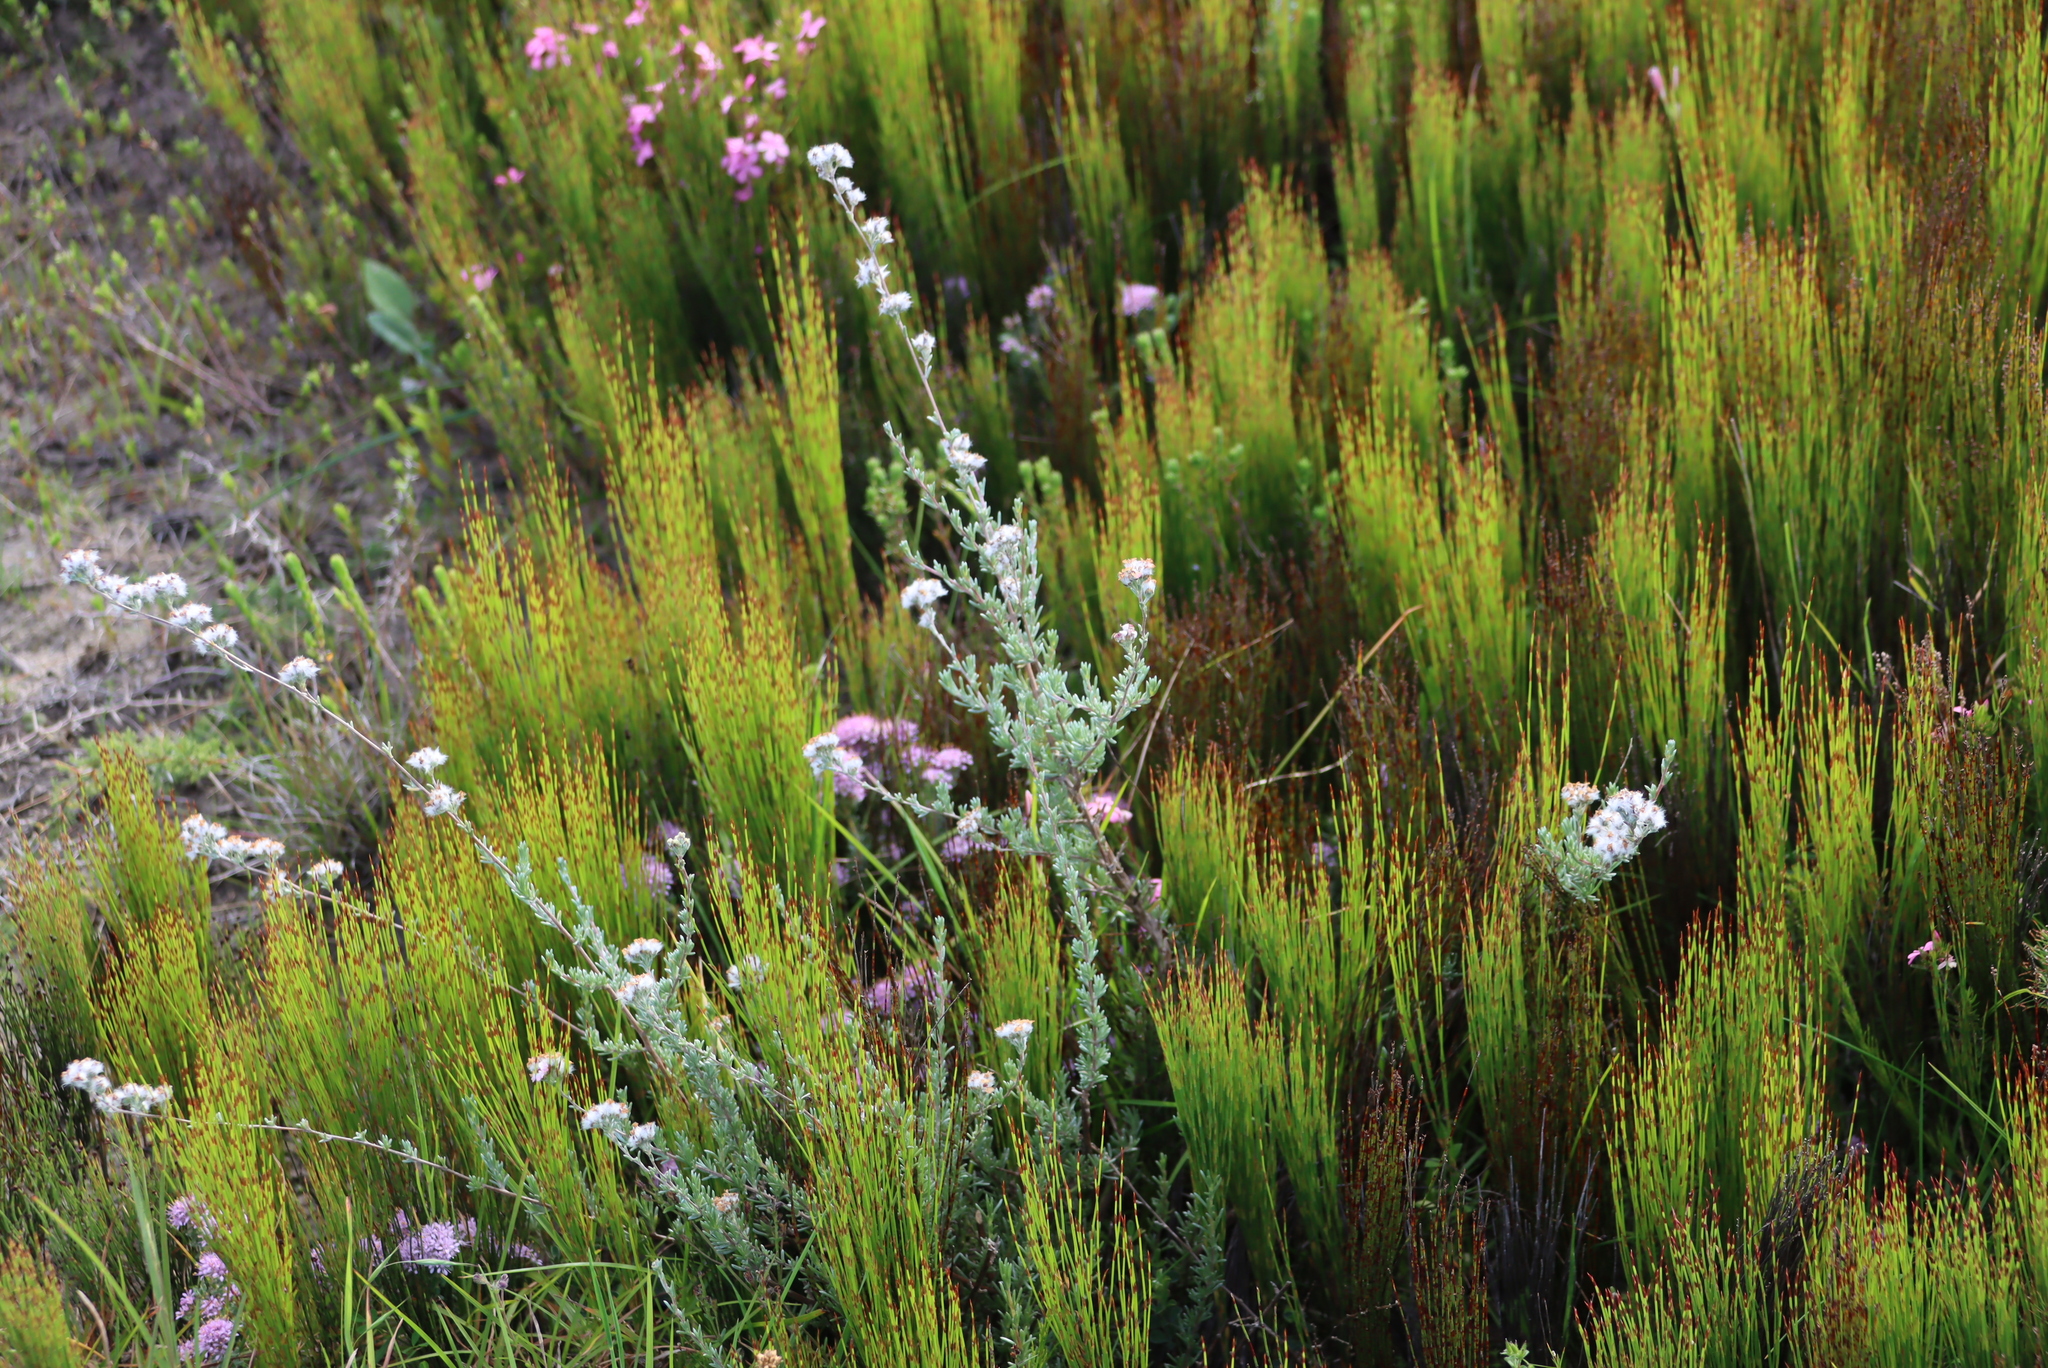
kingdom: Plantae
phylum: Tracheophyta
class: Liliopsida
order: Poales
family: Restionaceae
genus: Elegia
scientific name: Elegia microcarpa
